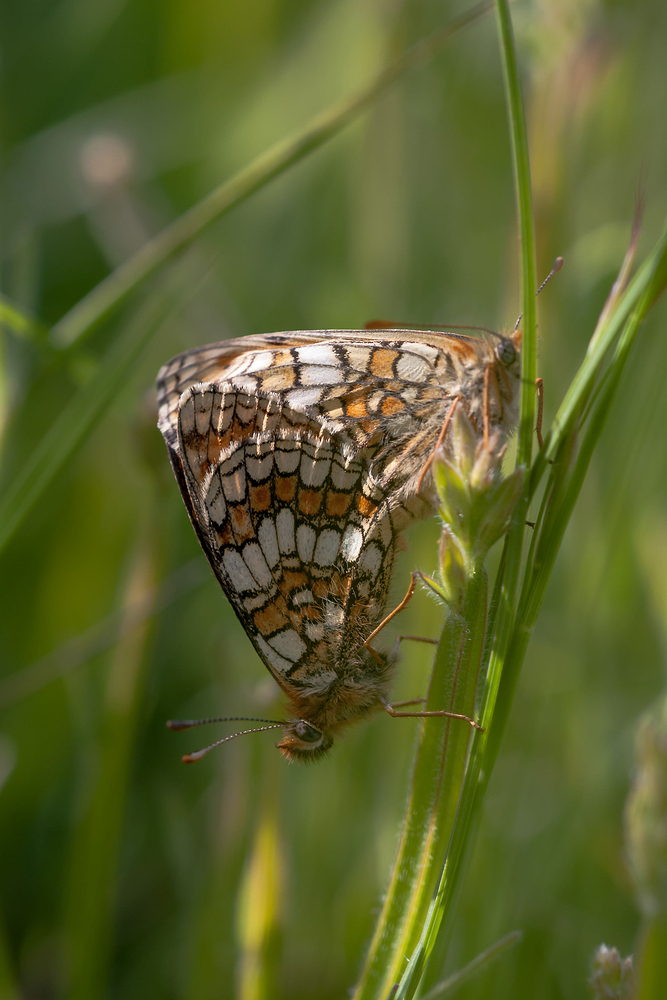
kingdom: Animalia
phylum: Arthropoda
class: Insecta
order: Lepidoptera
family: Nymphalidae
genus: Mellicta
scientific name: Mellicta parthenoides
